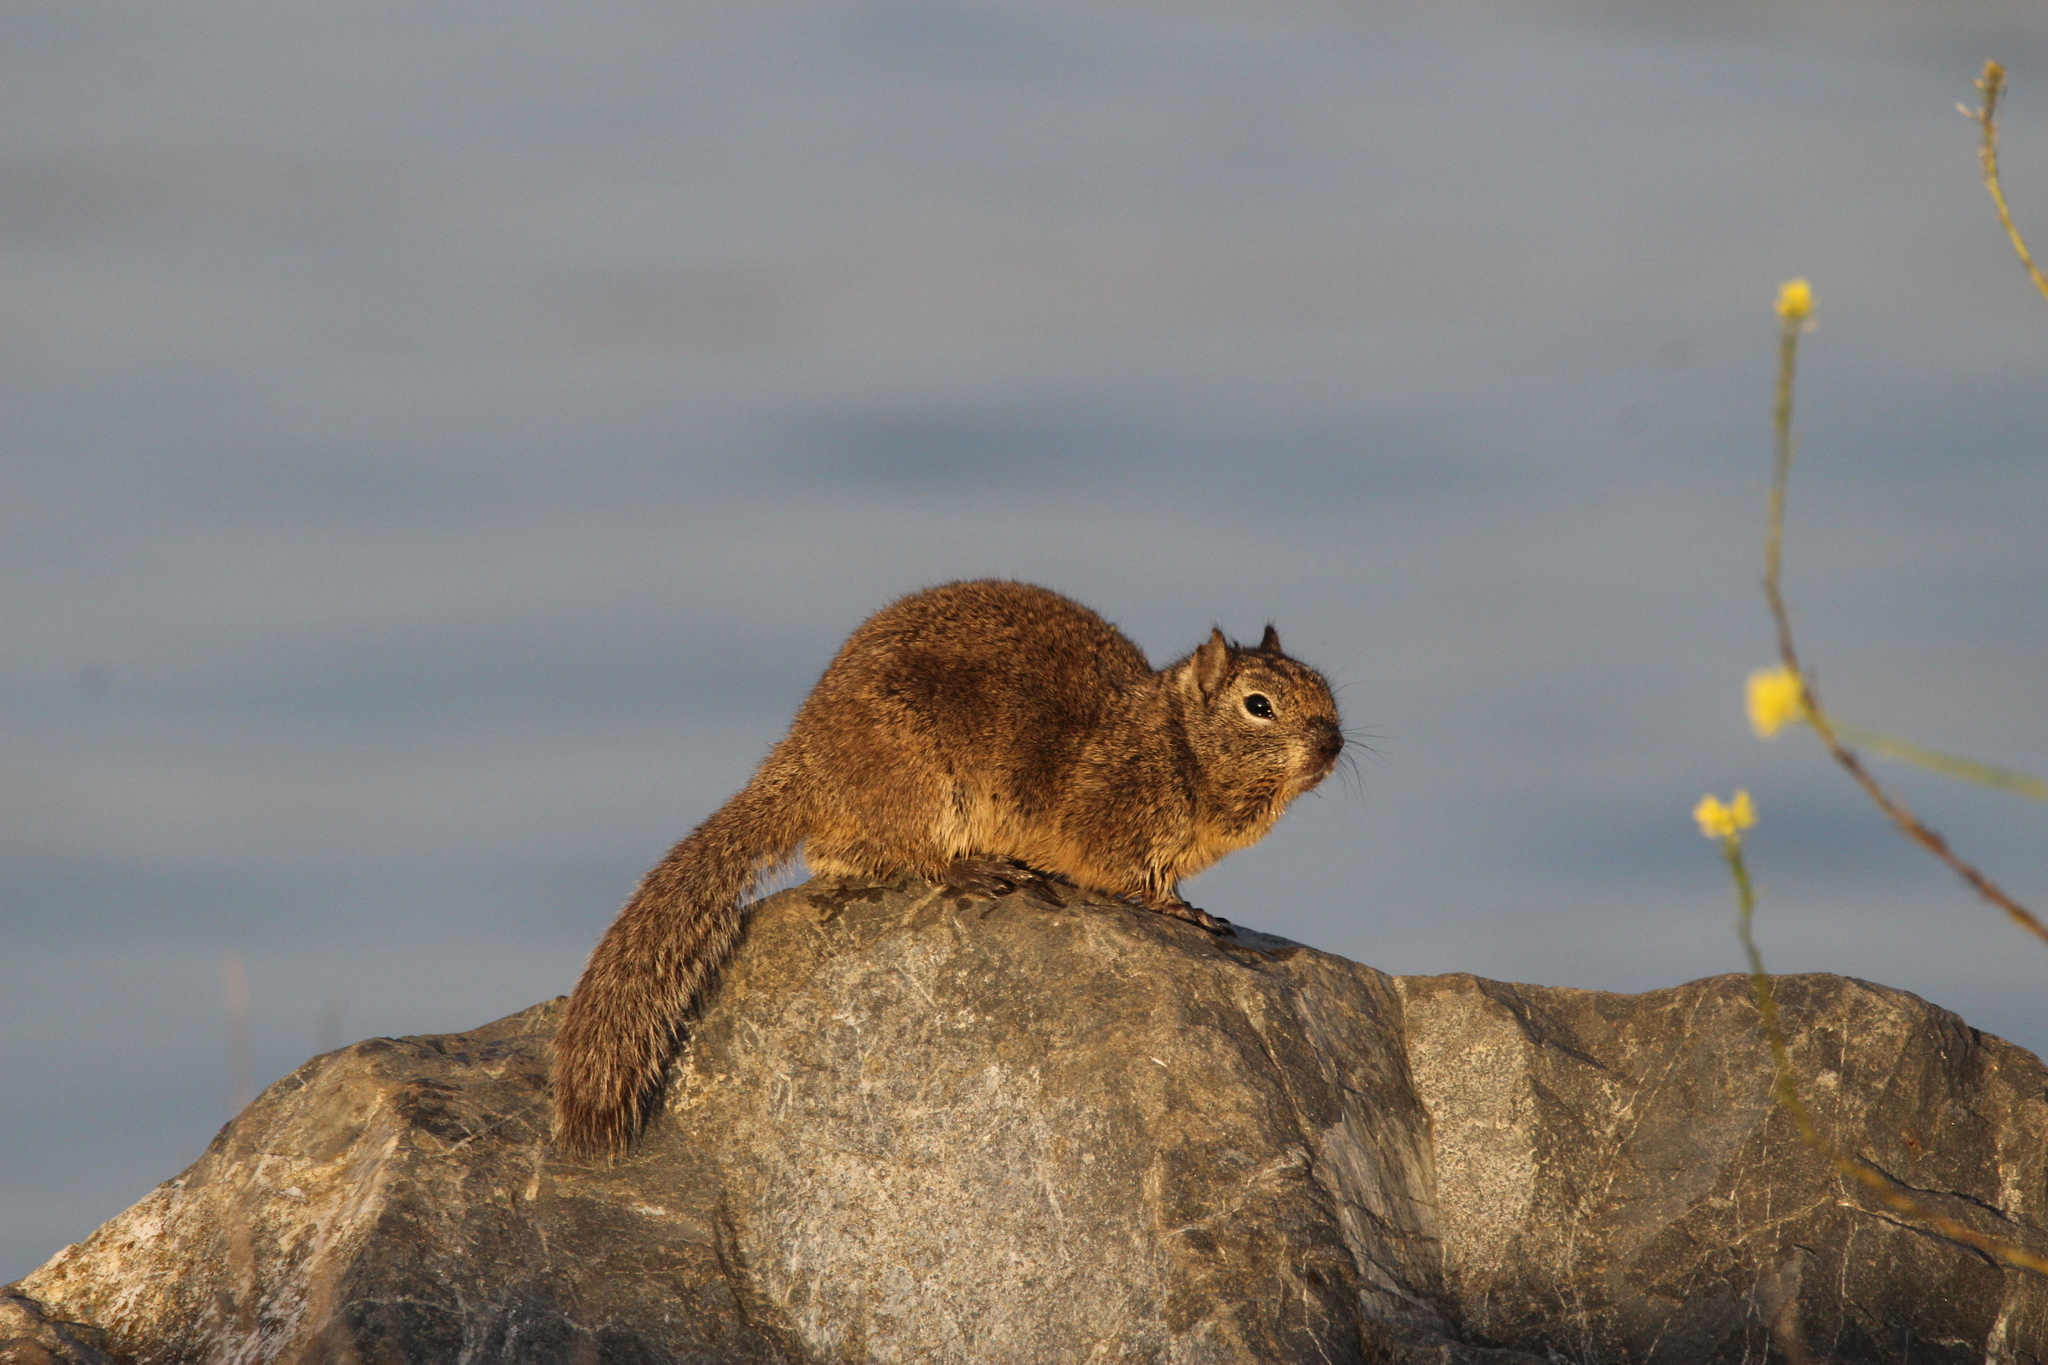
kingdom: Animalia
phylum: Chordata
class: Mammalia
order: Rodentia
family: Sciuridae
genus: Otospermophilus
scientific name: Otospermophilus beecheyi
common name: California ground squirrel
